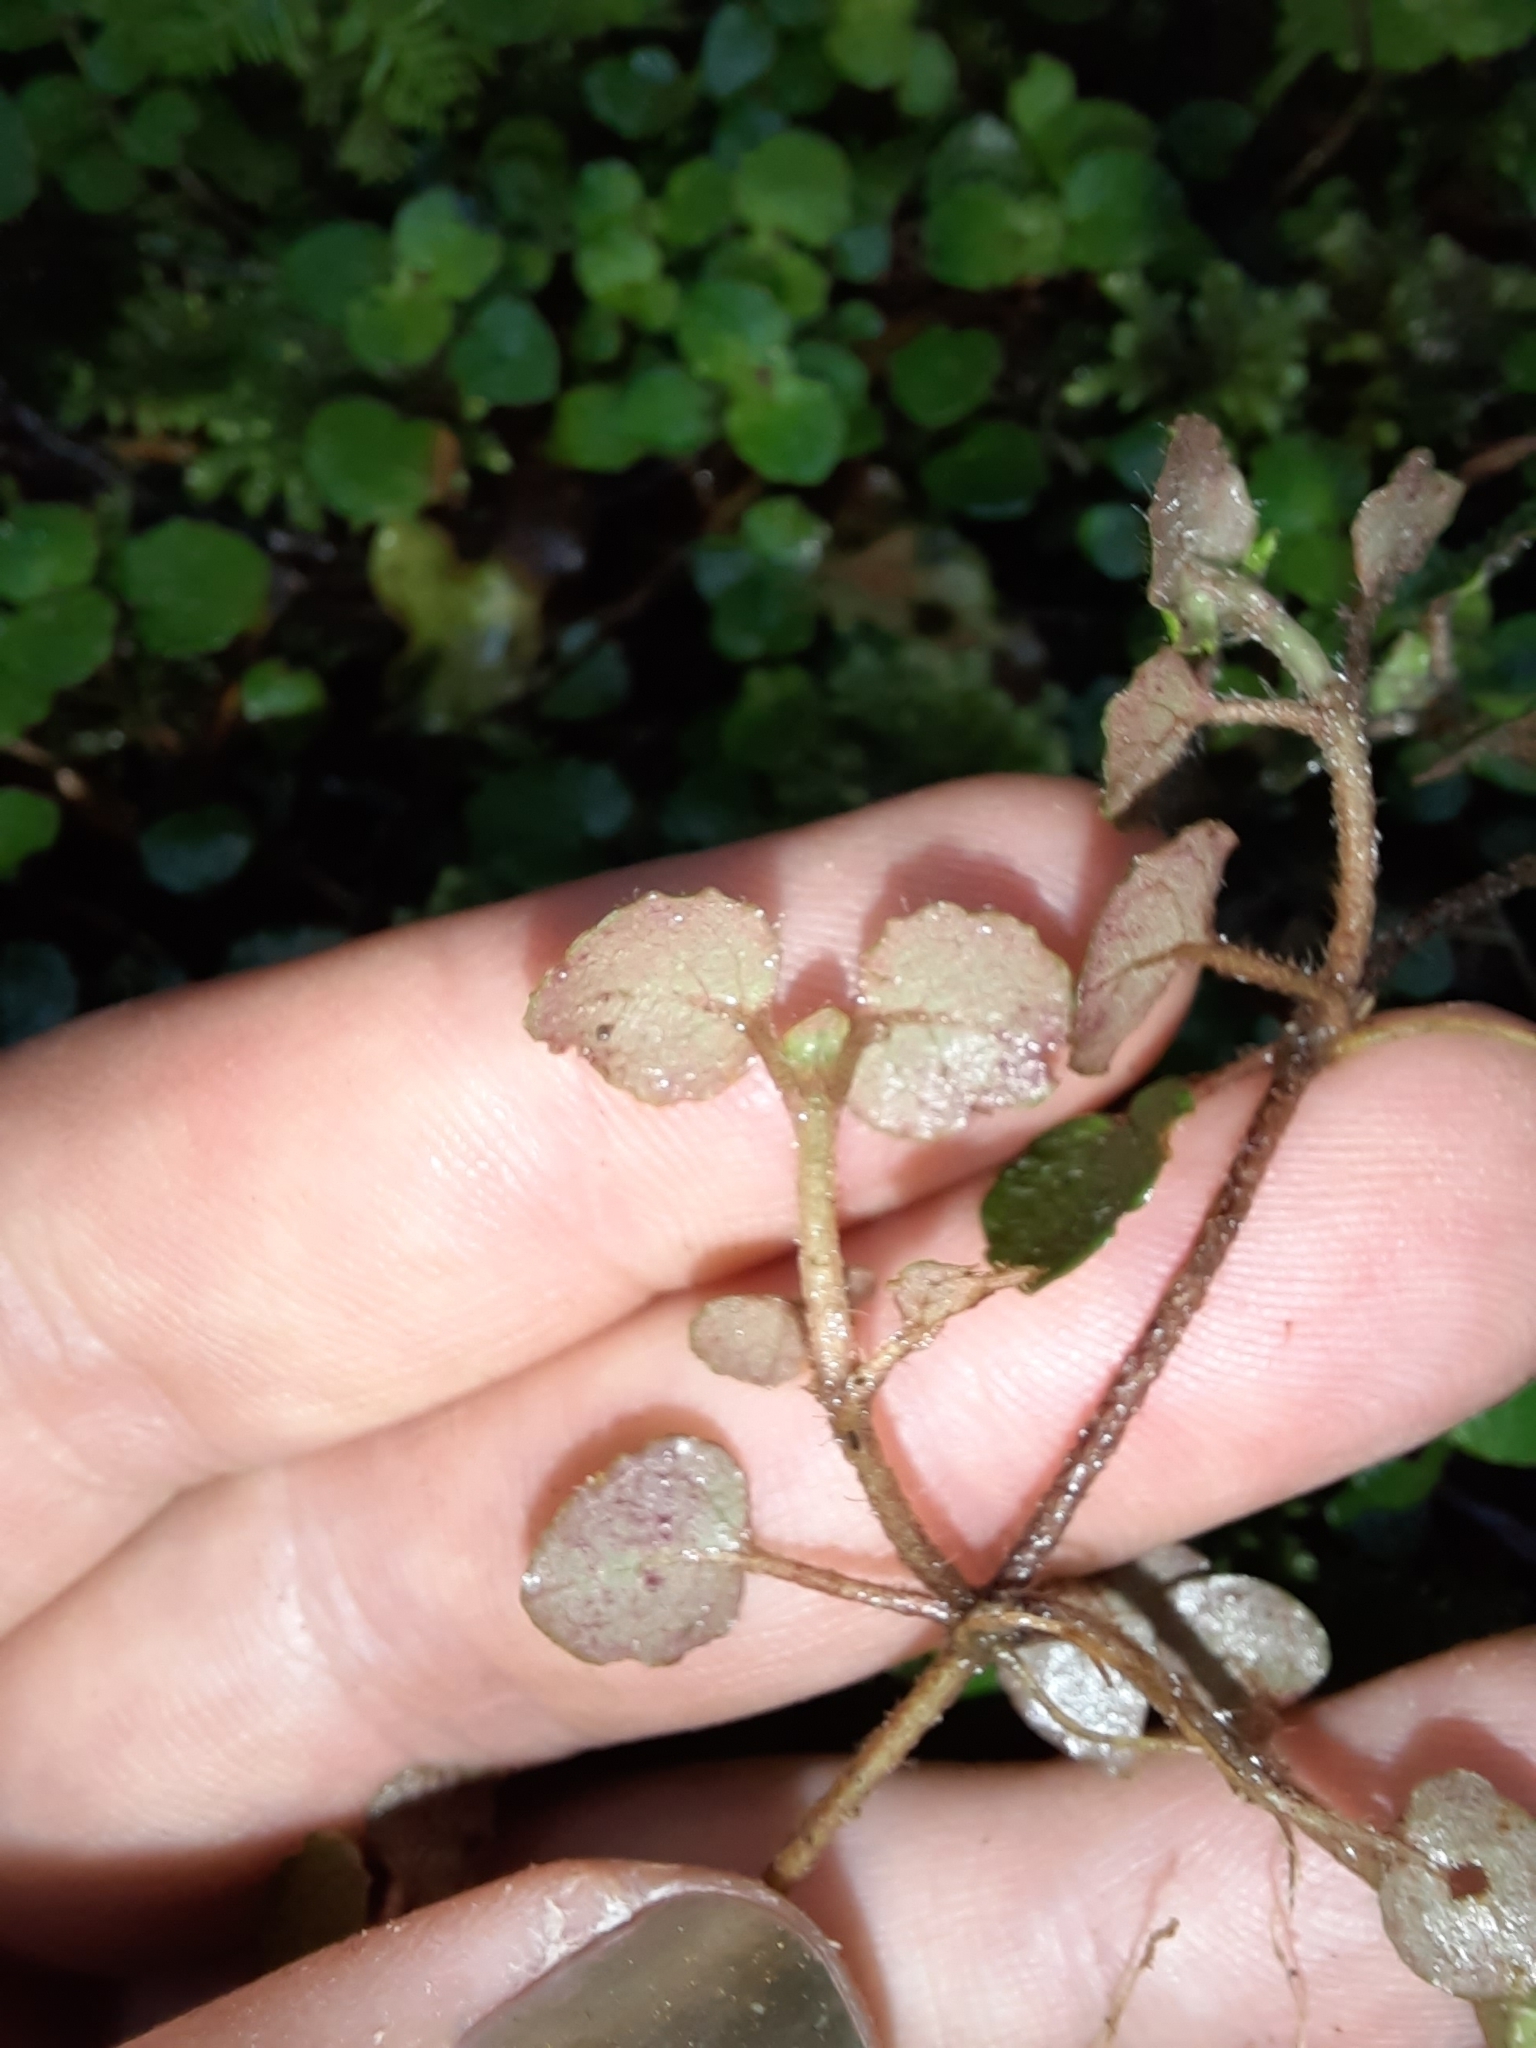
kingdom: Plantae
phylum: Tracheophyta
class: Magnoliopsida
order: Rosales
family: Urticaceae
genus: Australina
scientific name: Australina pusilla
